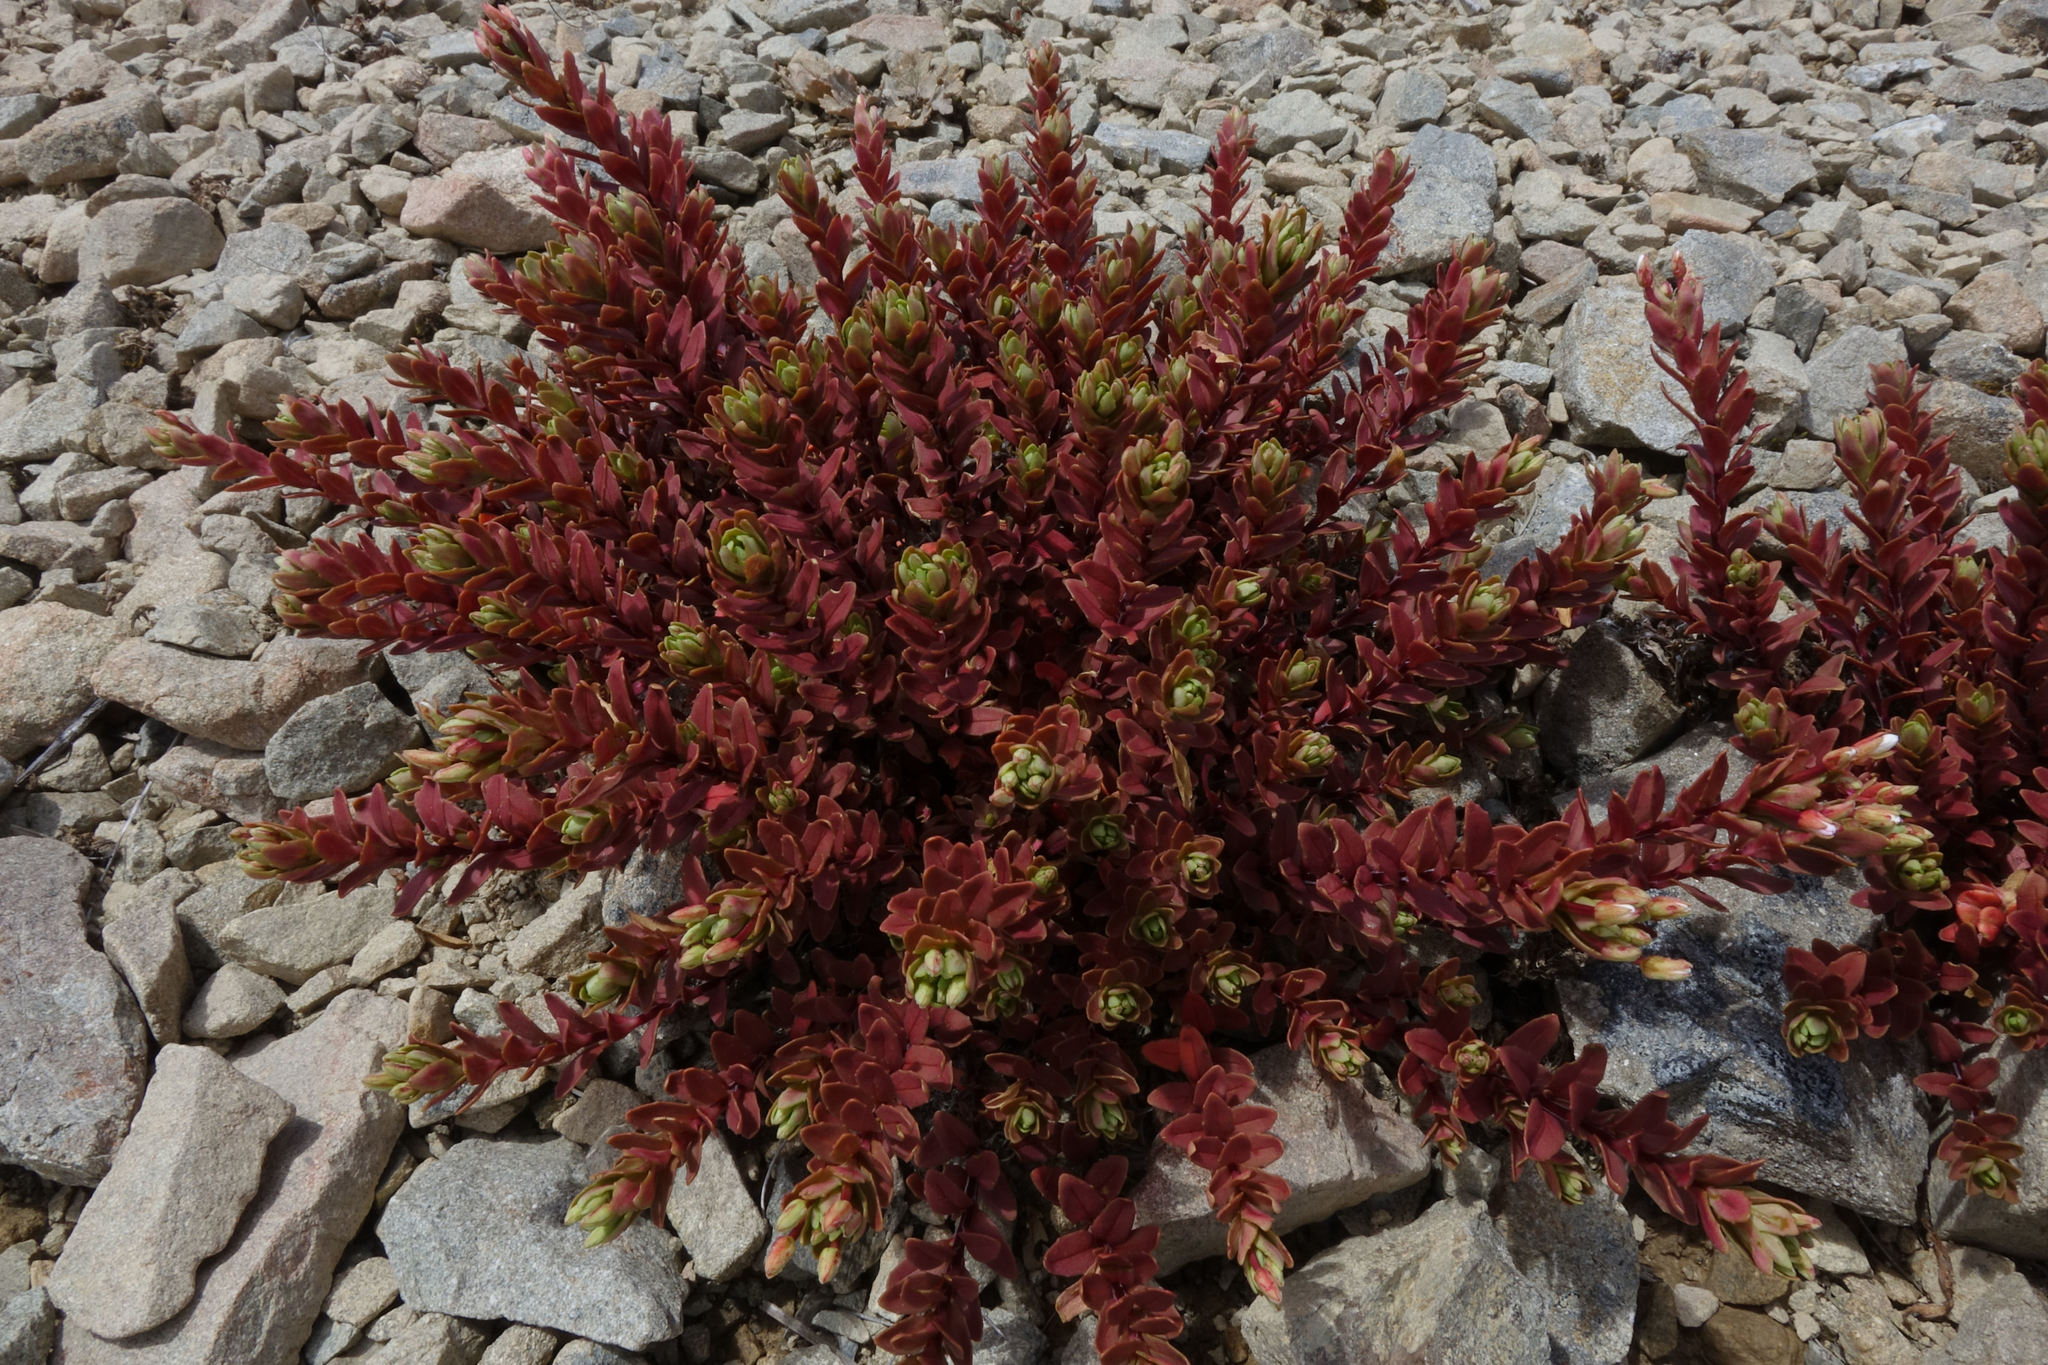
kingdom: Plantae
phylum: Tracheophyta
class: Magnoliopsida
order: Myrtales
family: Onagraceae
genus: Epilobium
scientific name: Epilobium pycnostachyum
